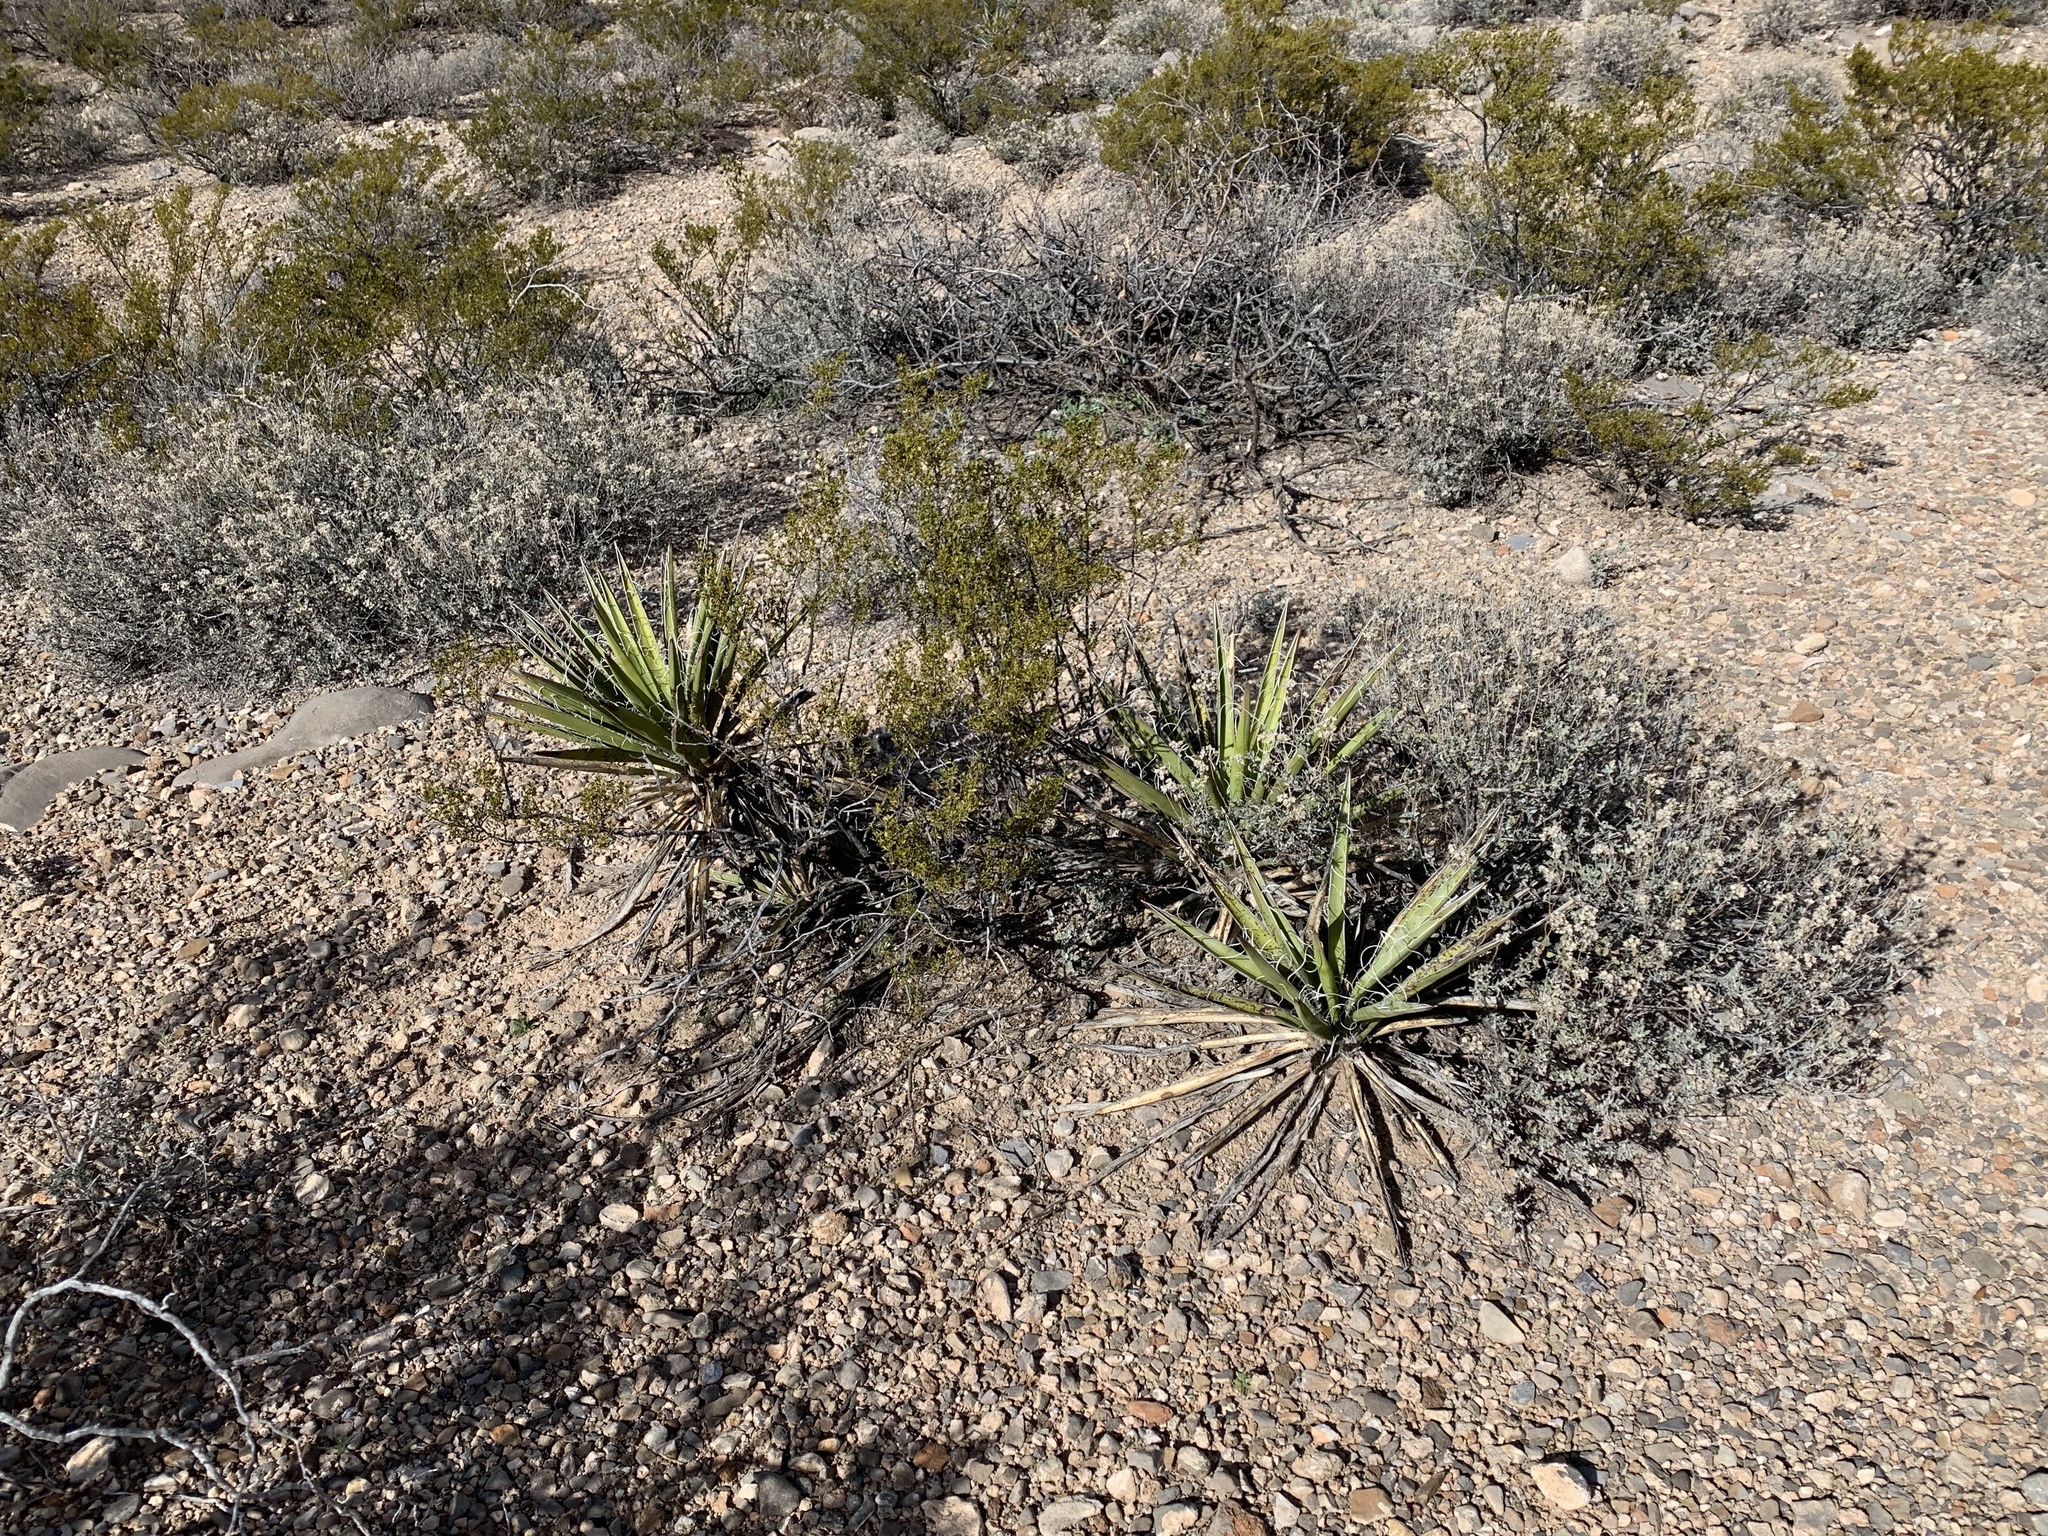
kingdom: Plantae
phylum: Tracheophyta
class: Liliopsida
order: Asparagales
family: Asparagaceae
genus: Yucca
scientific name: Yucca baccata
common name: Banana yucca
